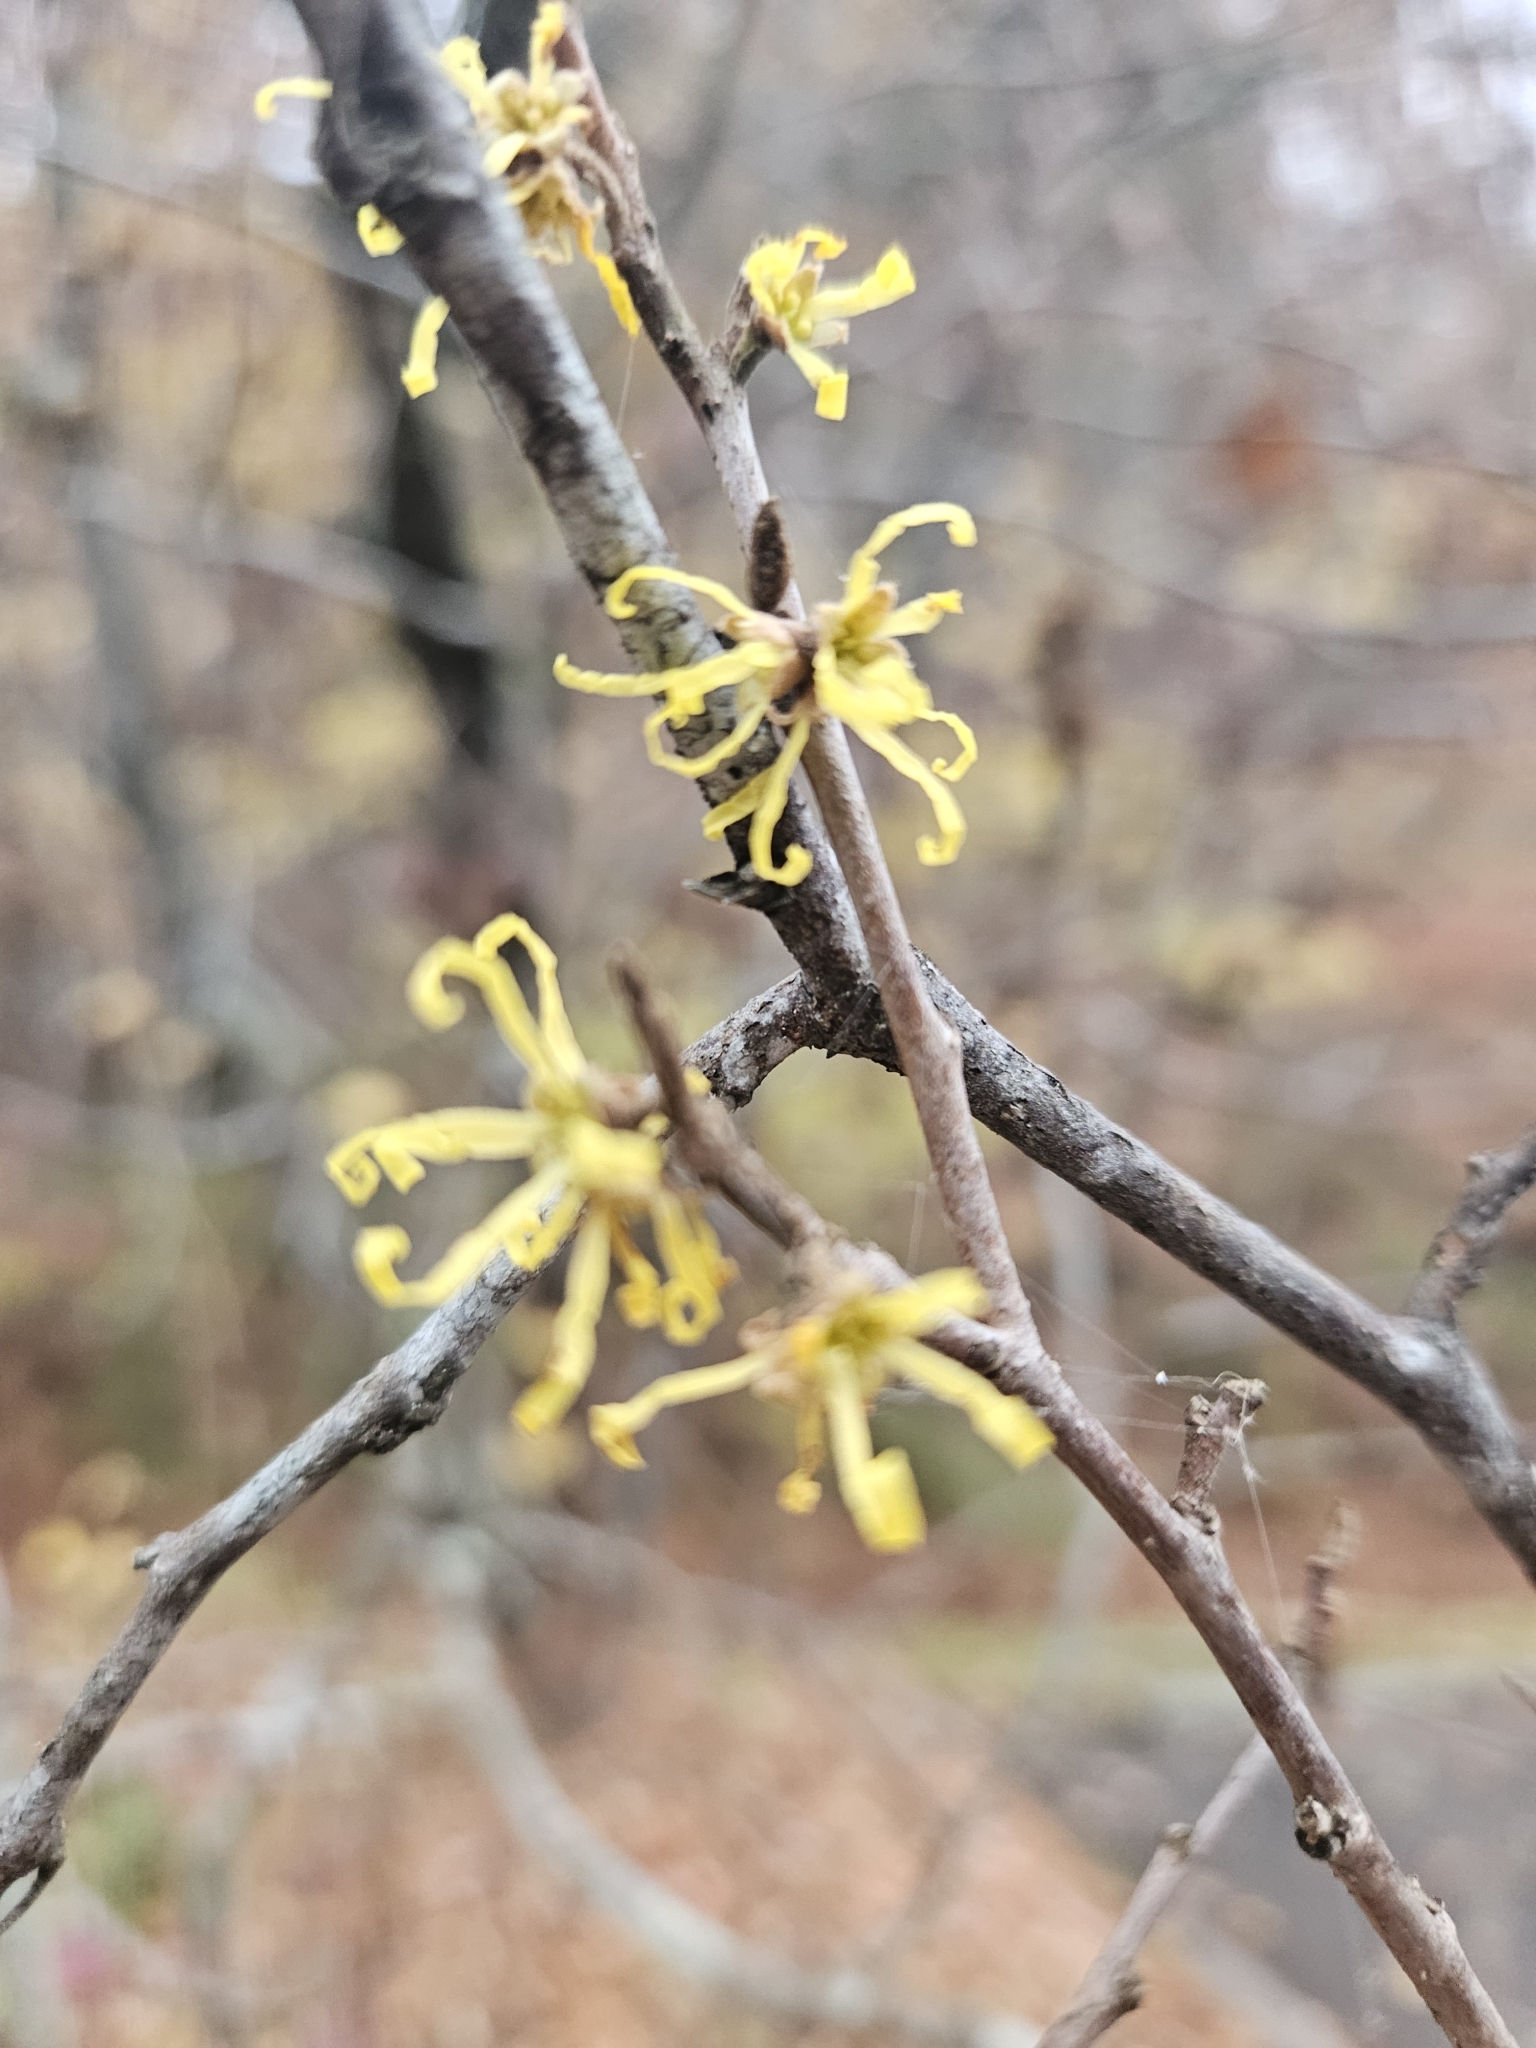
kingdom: Plantae
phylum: Tracheophyta
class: Magnoliopsida
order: Saxifragales
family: Hamamelidaceae
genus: Hamamelis
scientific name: Hamamelis virginiana
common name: Witch-hazel
